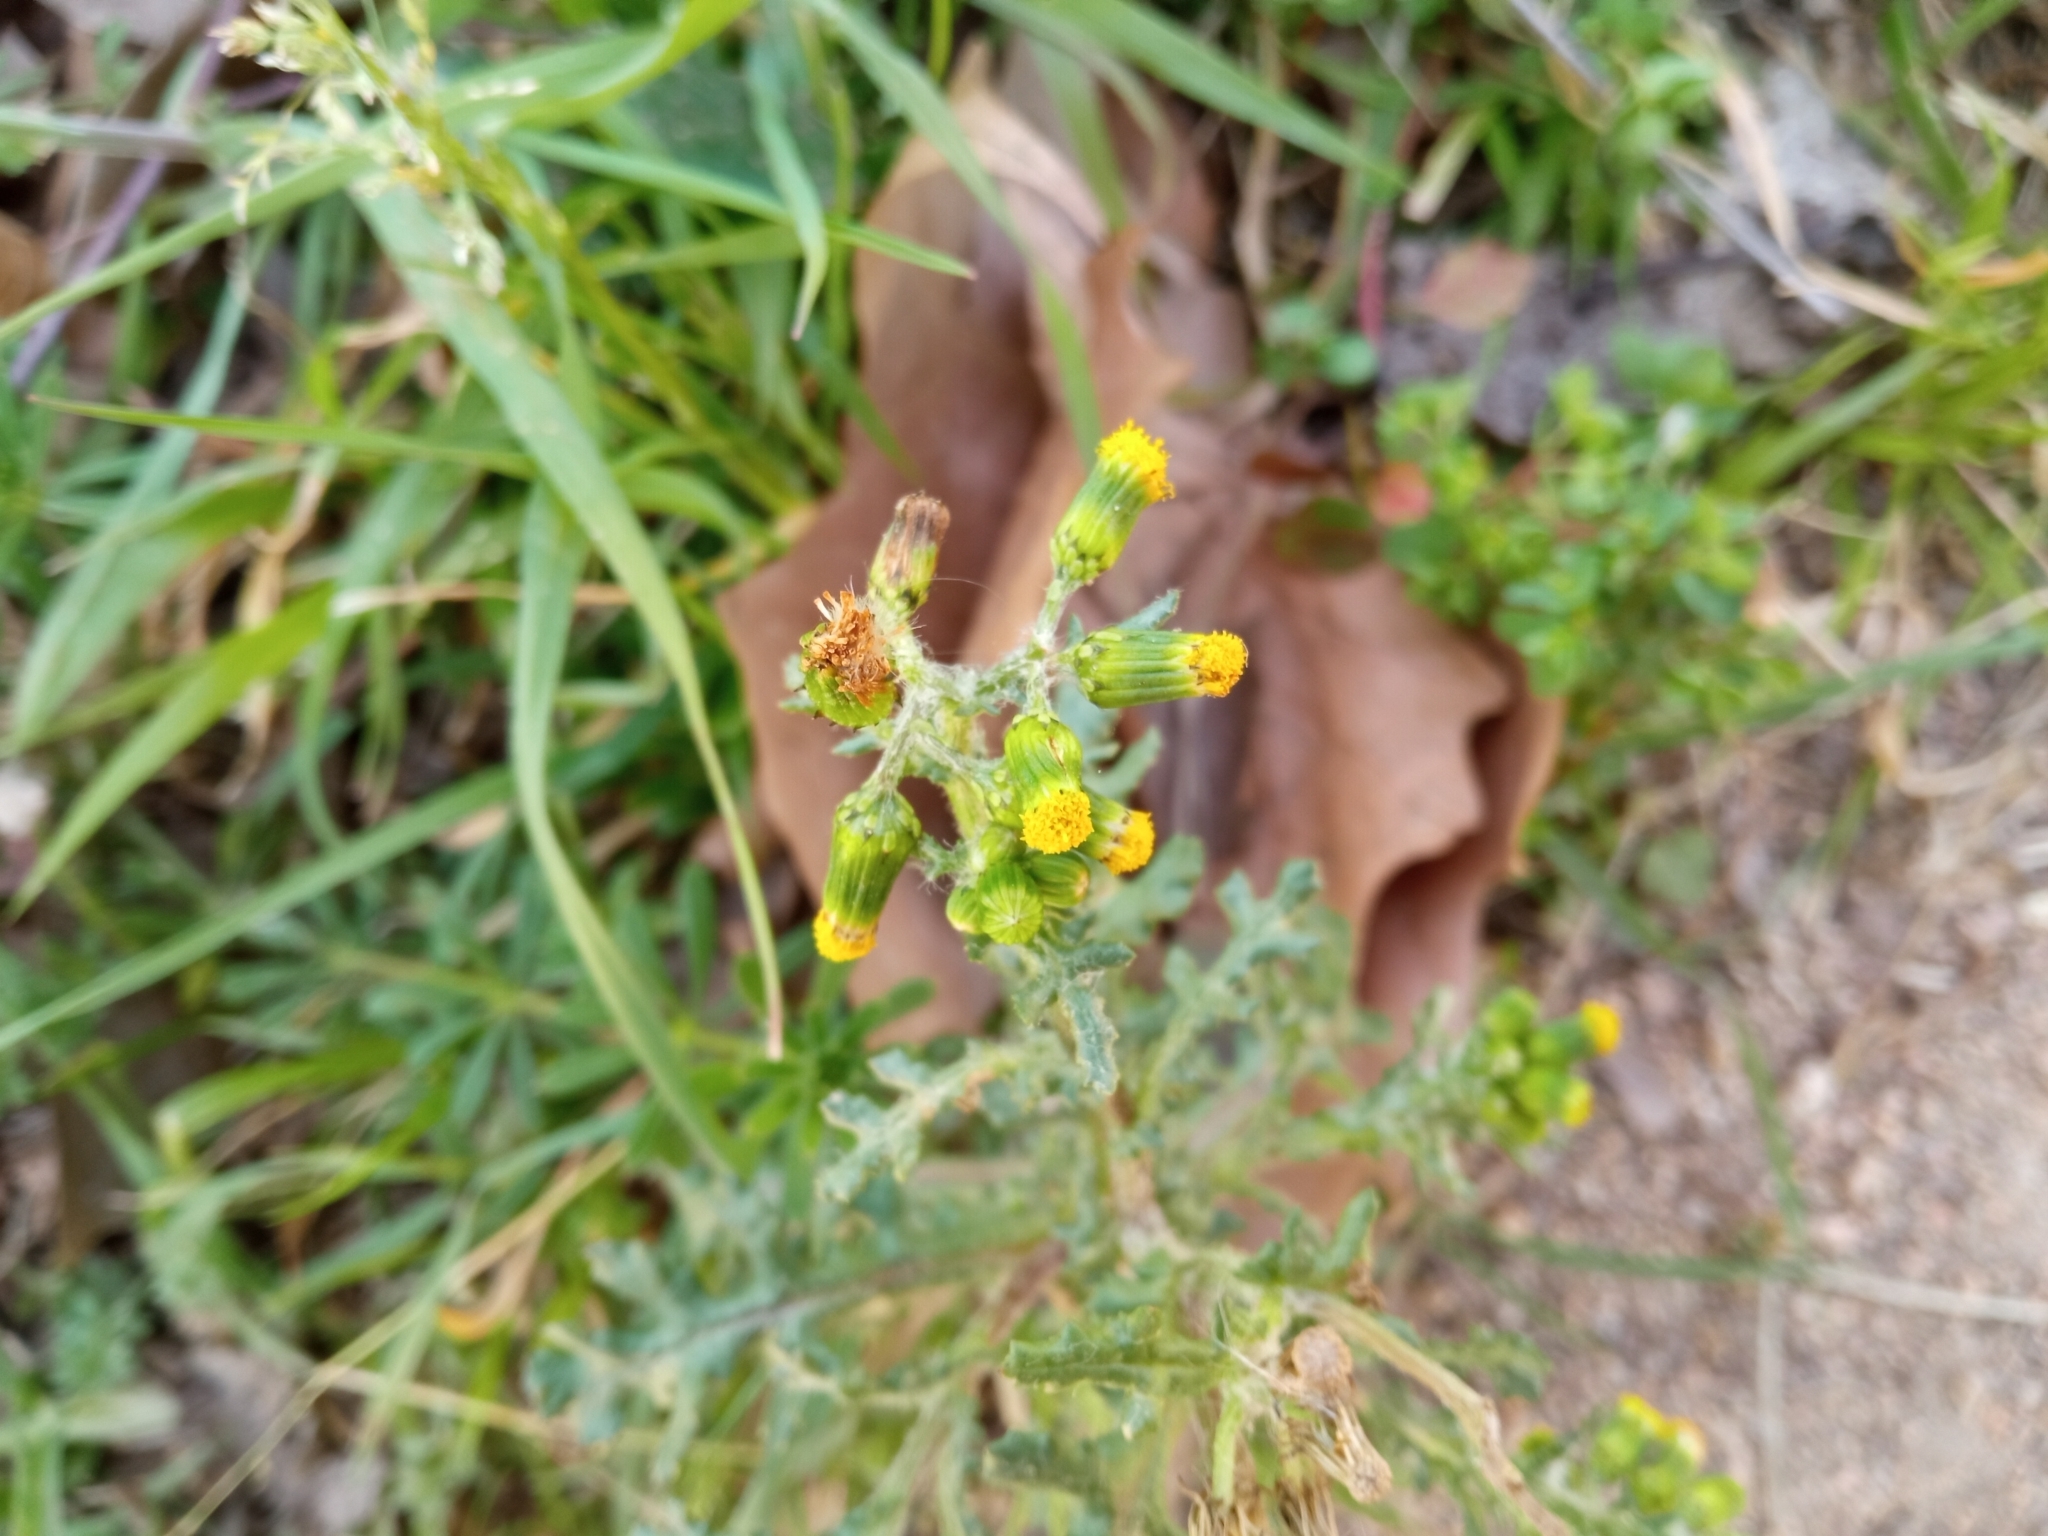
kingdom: Plantae
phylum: Tracheophyta
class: Magnoliopsida
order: Asterales
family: Asteraceae
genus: Senecio
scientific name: Senecio vulgaris
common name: Old-man-in-the-spring
